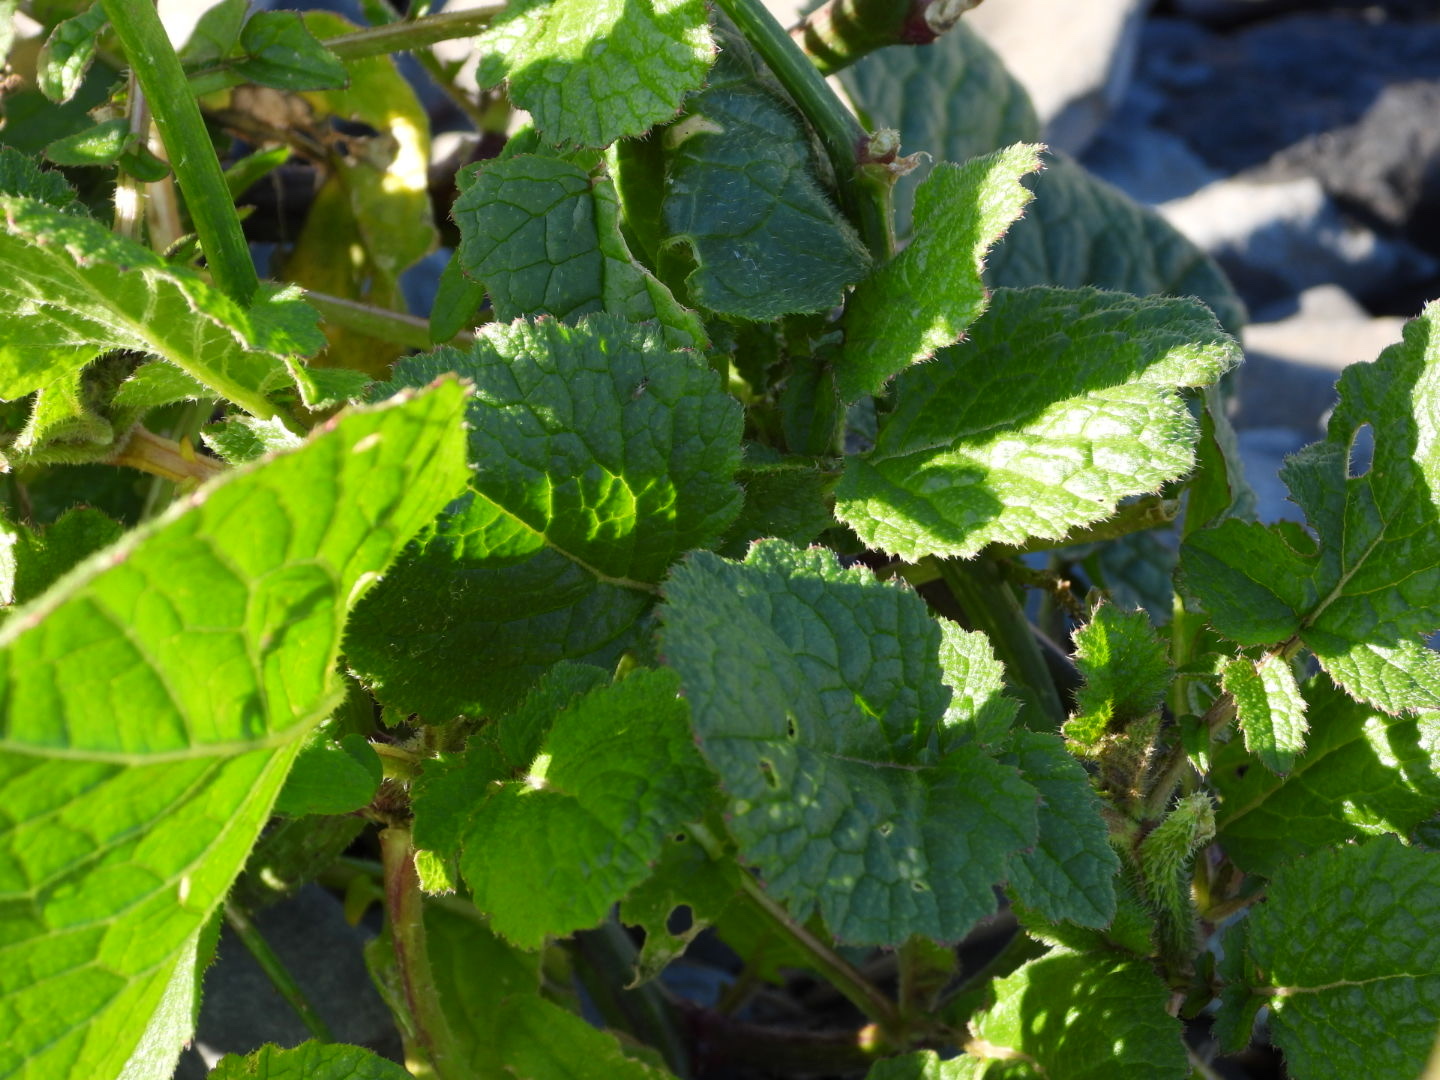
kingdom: Plantae
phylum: Tracheophyta
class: Magnoliopsida
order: Brassicales
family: Brassicaceae
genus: Raphanus
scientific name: Raphanus raphanistrum
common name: Wild radish
